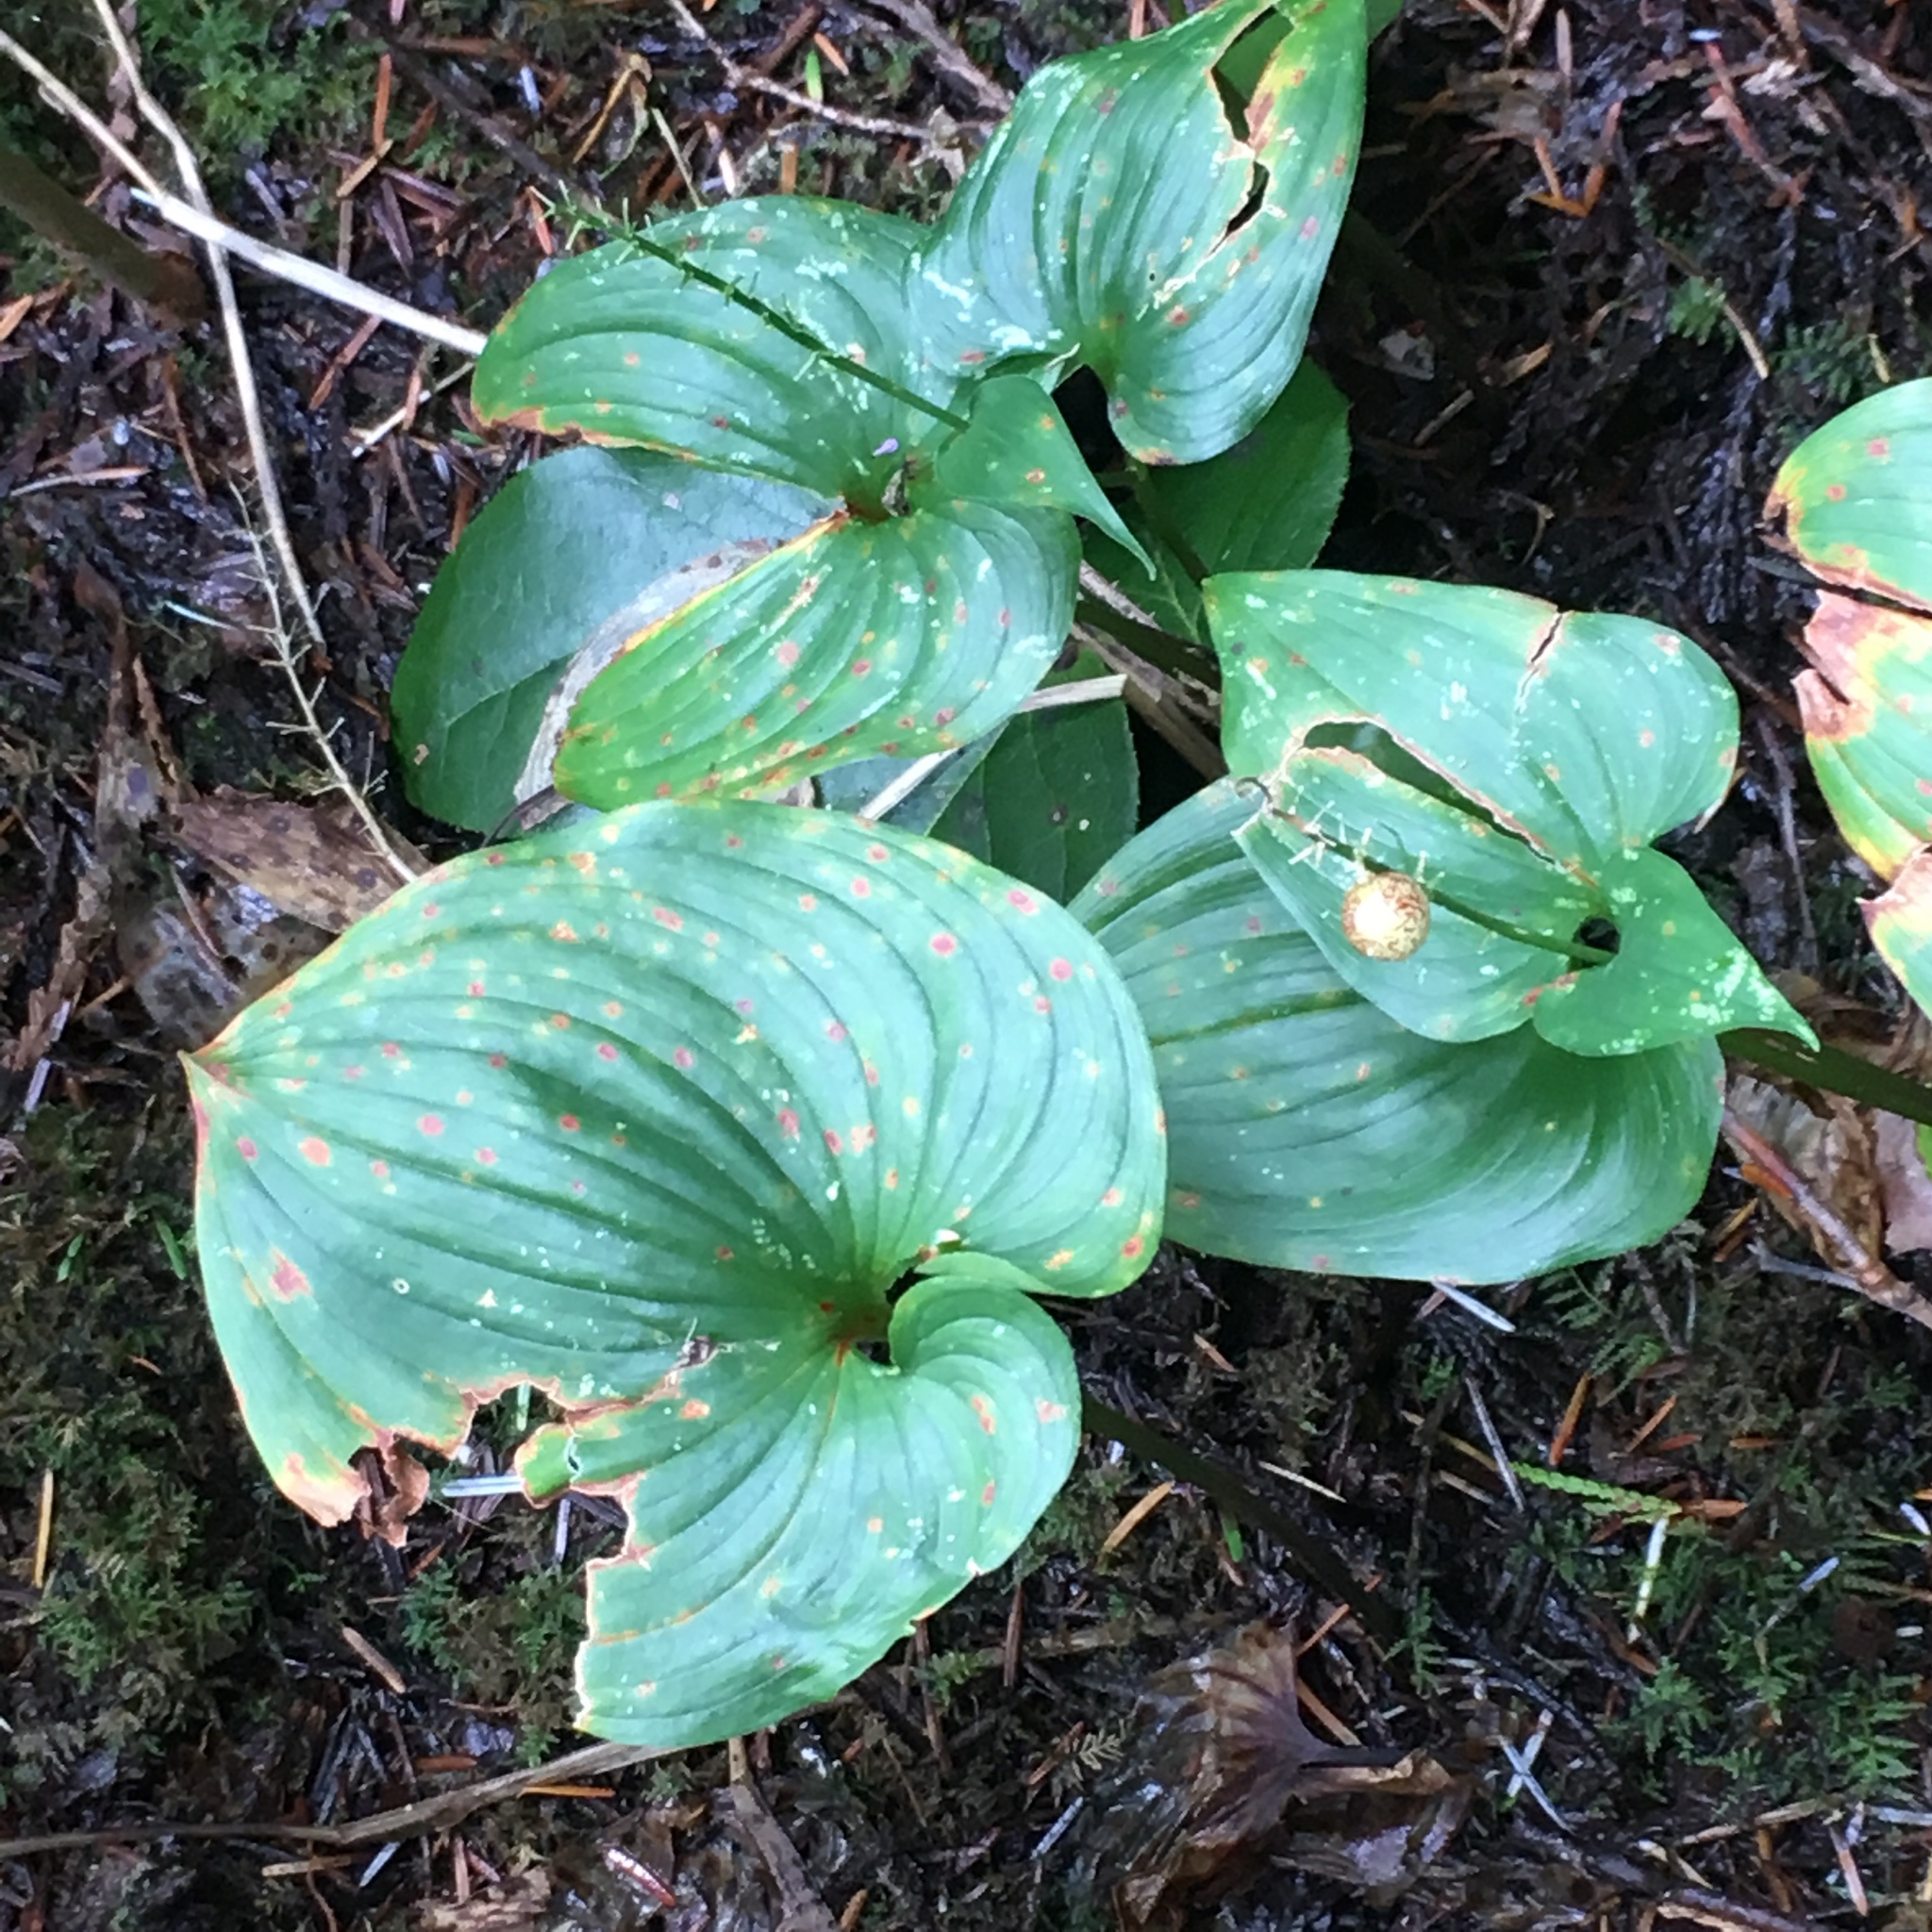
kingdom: Plantae
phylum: Tracheophyta
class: Liliopsida
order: Asparagales
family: Asparagaceae
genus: Maianthemum
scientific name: Maianthemum dilatatum
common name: False lily-of-the-valley
